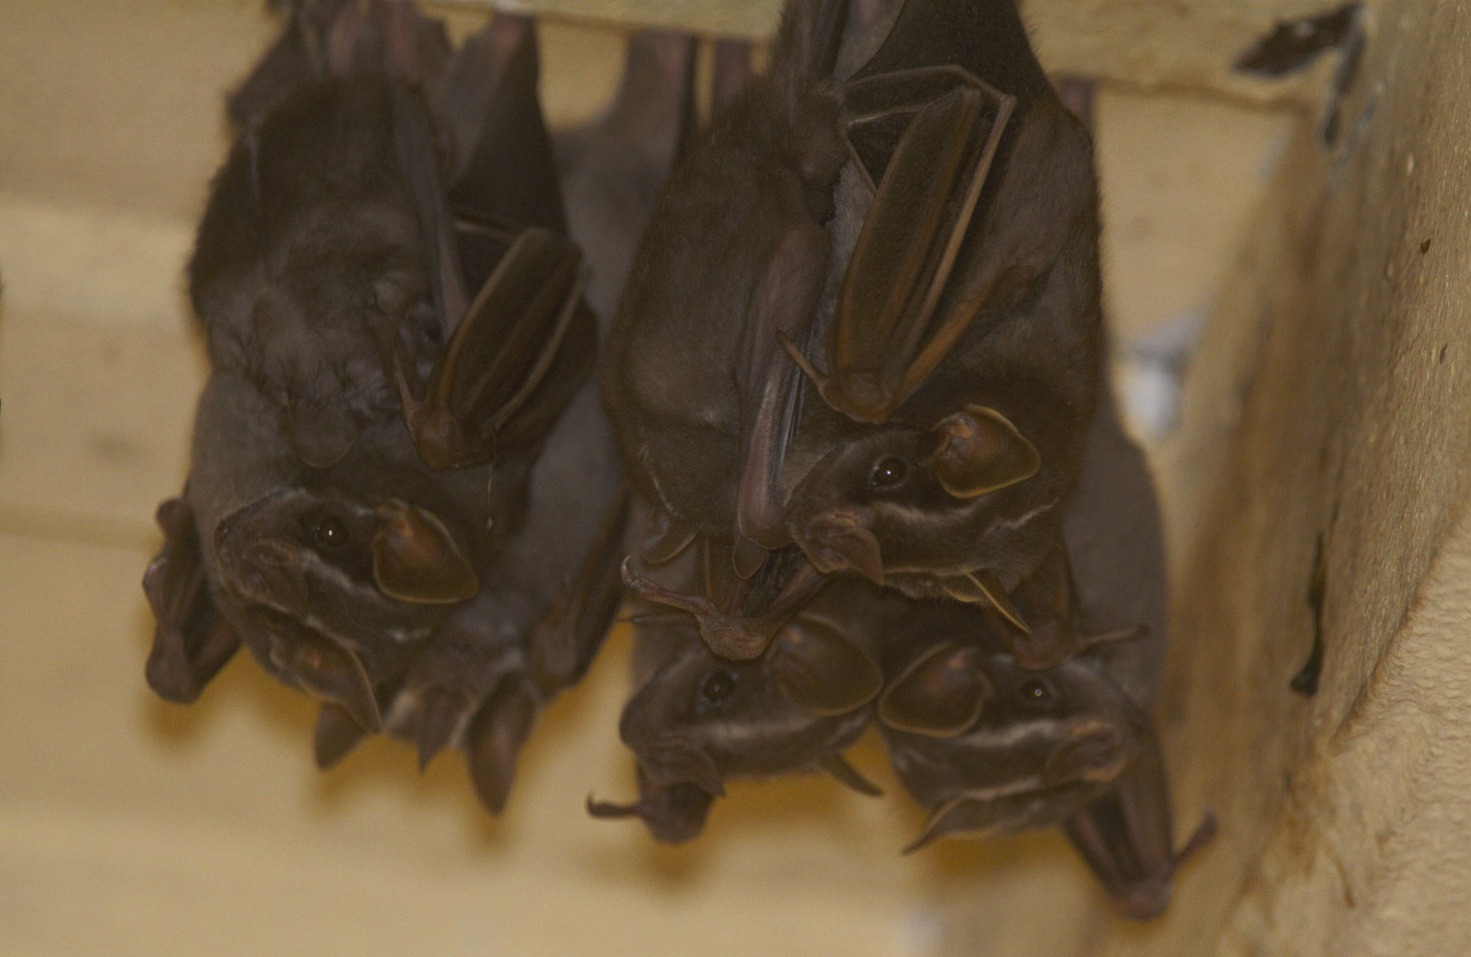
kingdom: Animalia
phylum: Chordata
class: Mammalia
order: Chiroptera
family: Phyllostomidae
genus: Platyrrhinus
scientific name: Platyrrhinus lineatus
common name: White-lined broad-nosed bat
